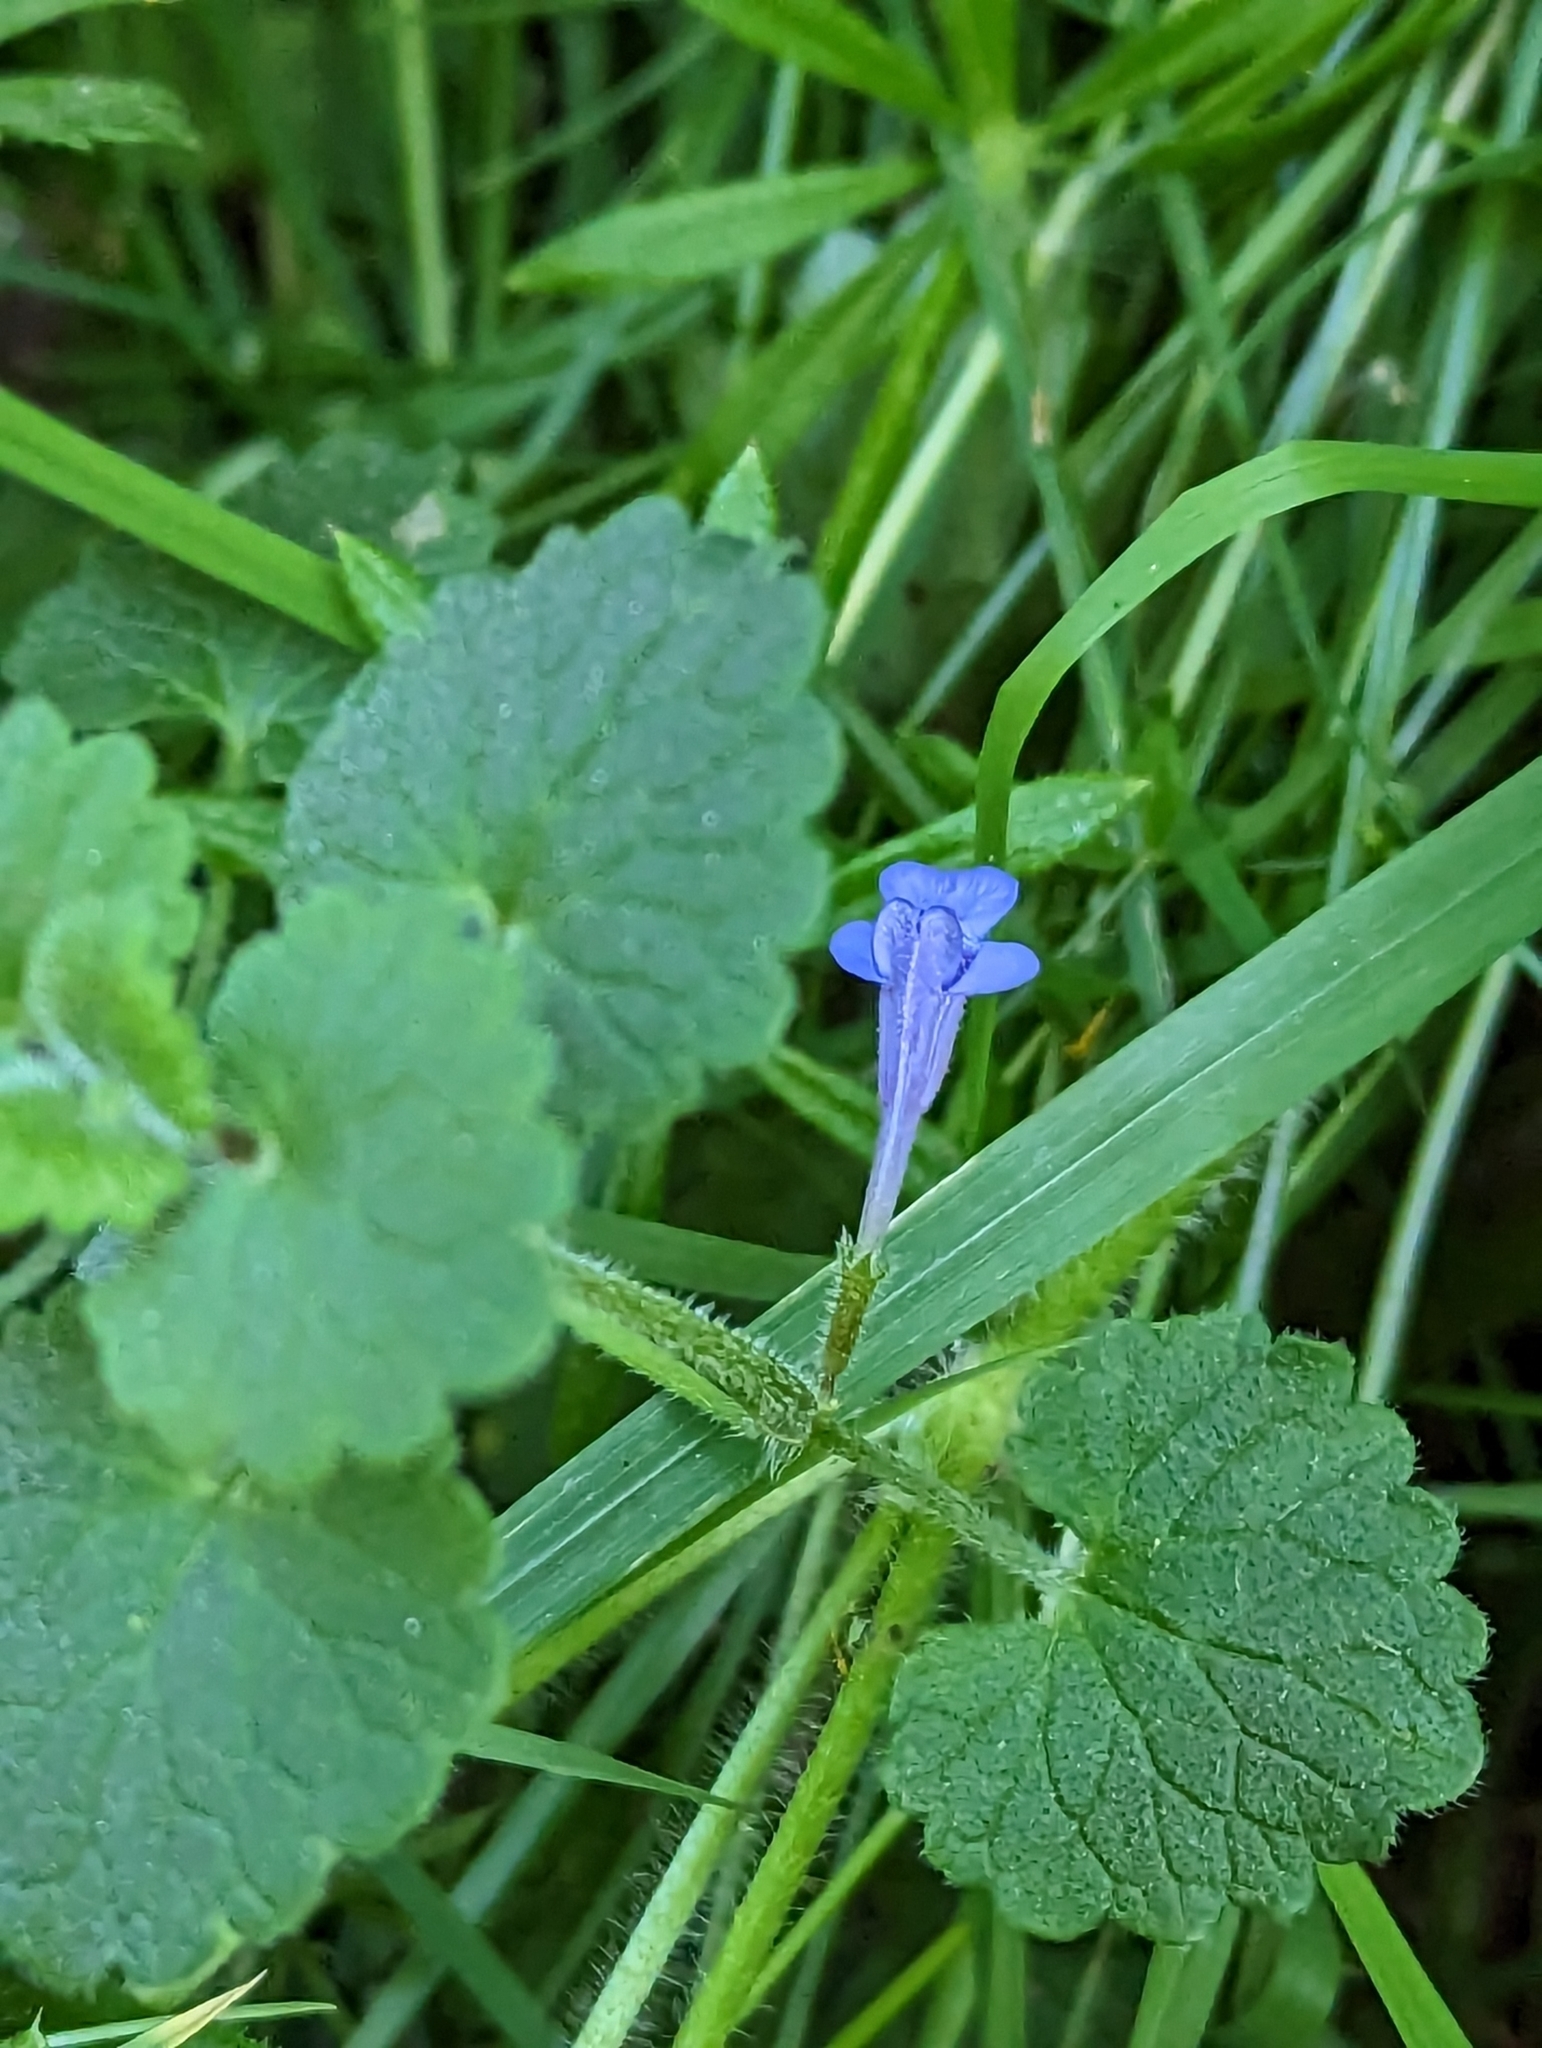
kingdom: Plantae
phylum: Tracheophyta
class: Magnoliopsida
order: Lamiales
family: Lamiaceae
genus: Glechoma
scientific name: Glechoma hederacea
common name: Ground ivy
